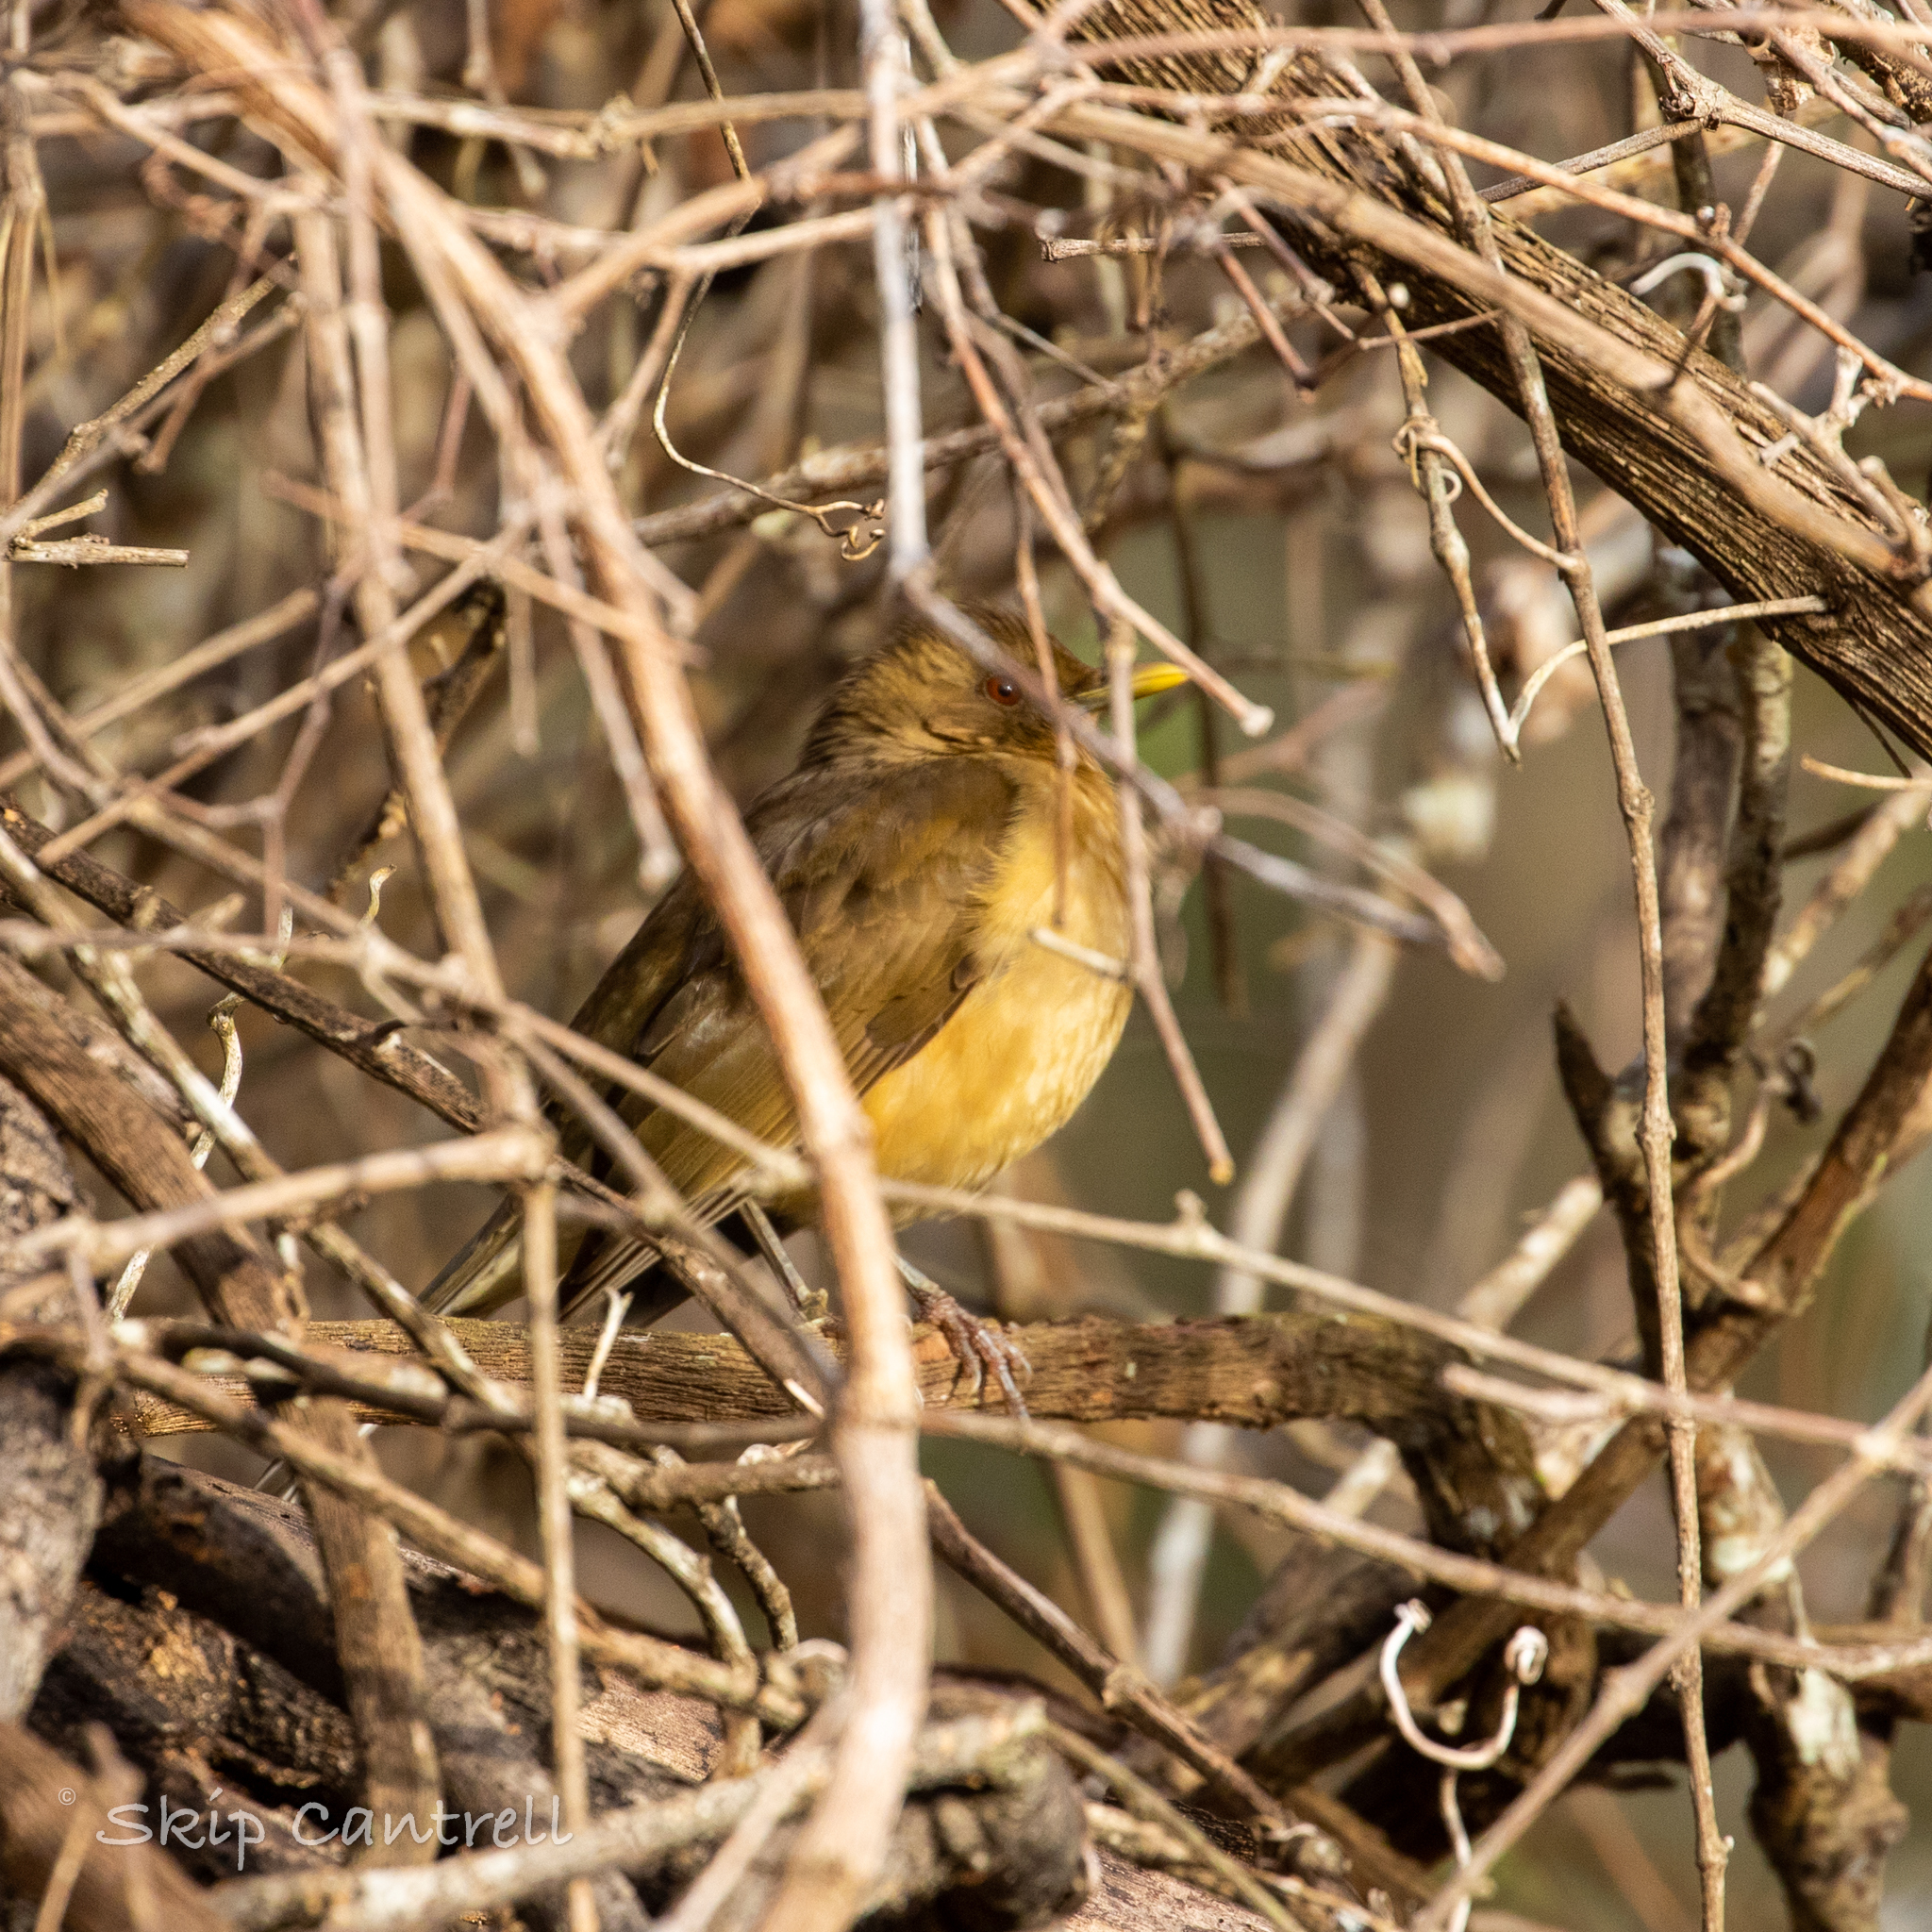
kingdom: Animalia
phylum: Chordata
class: Aves
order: Passeriformes
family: Turdidae
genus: Turdus
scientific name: Turdus grayi
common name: Clay-colored thrush
